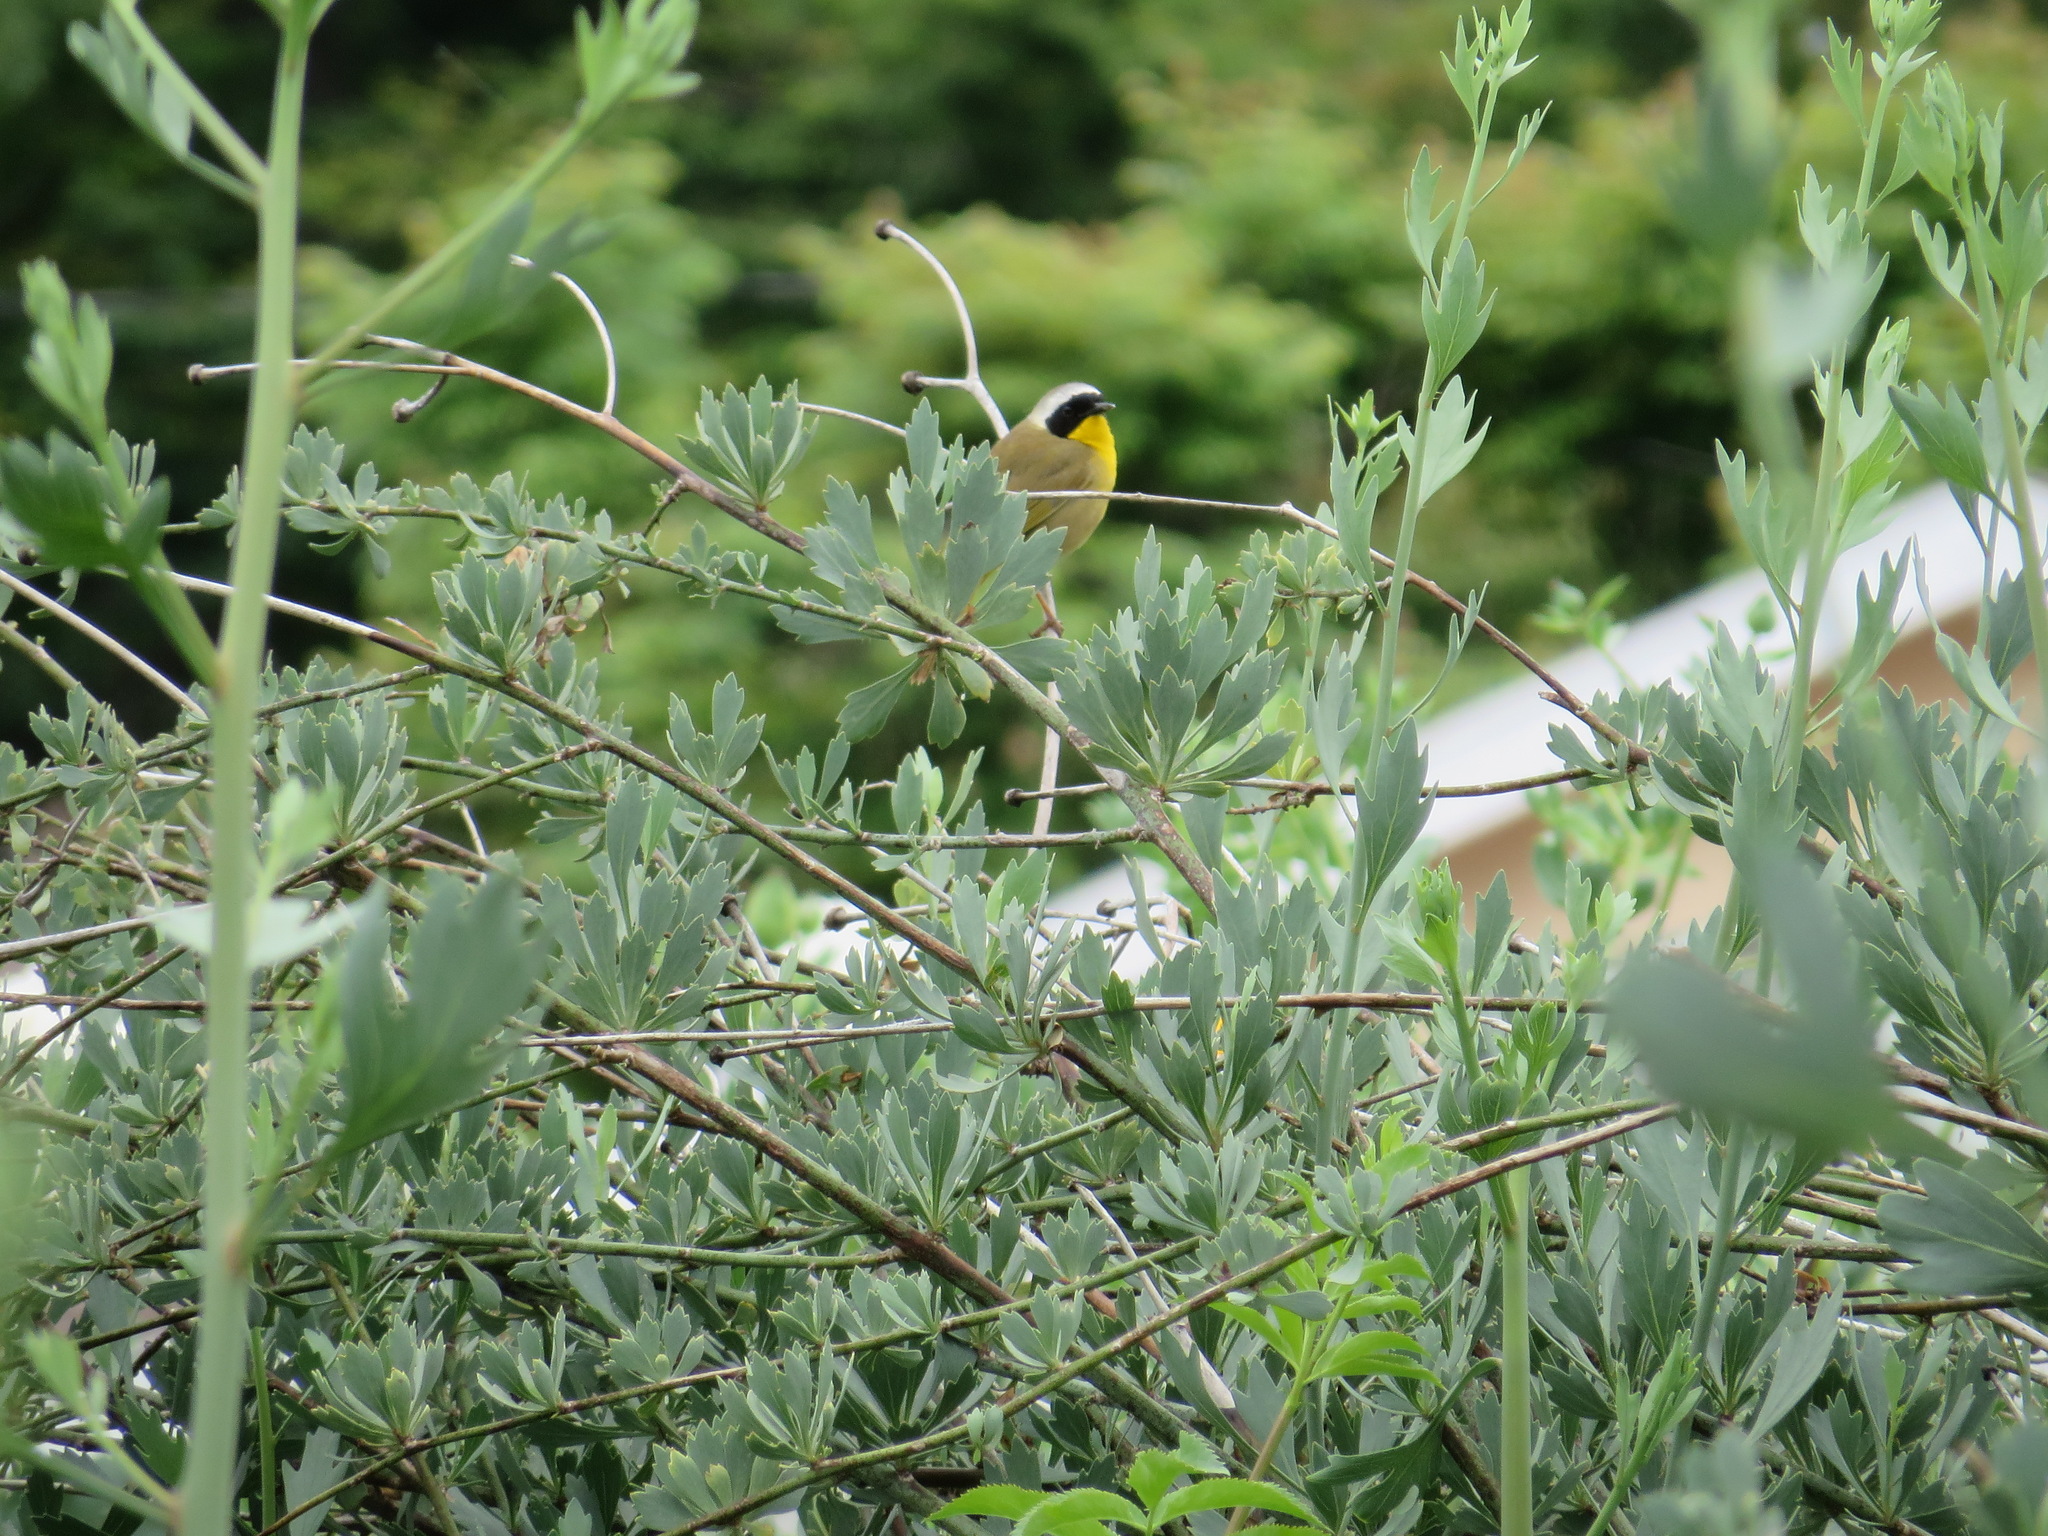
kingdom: Animalia
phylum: Chordata
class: Aves
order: Passeriformes
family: Parulidae
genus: Geothlypis
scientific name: Geothlypis trichas
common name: Common yellowthroat
